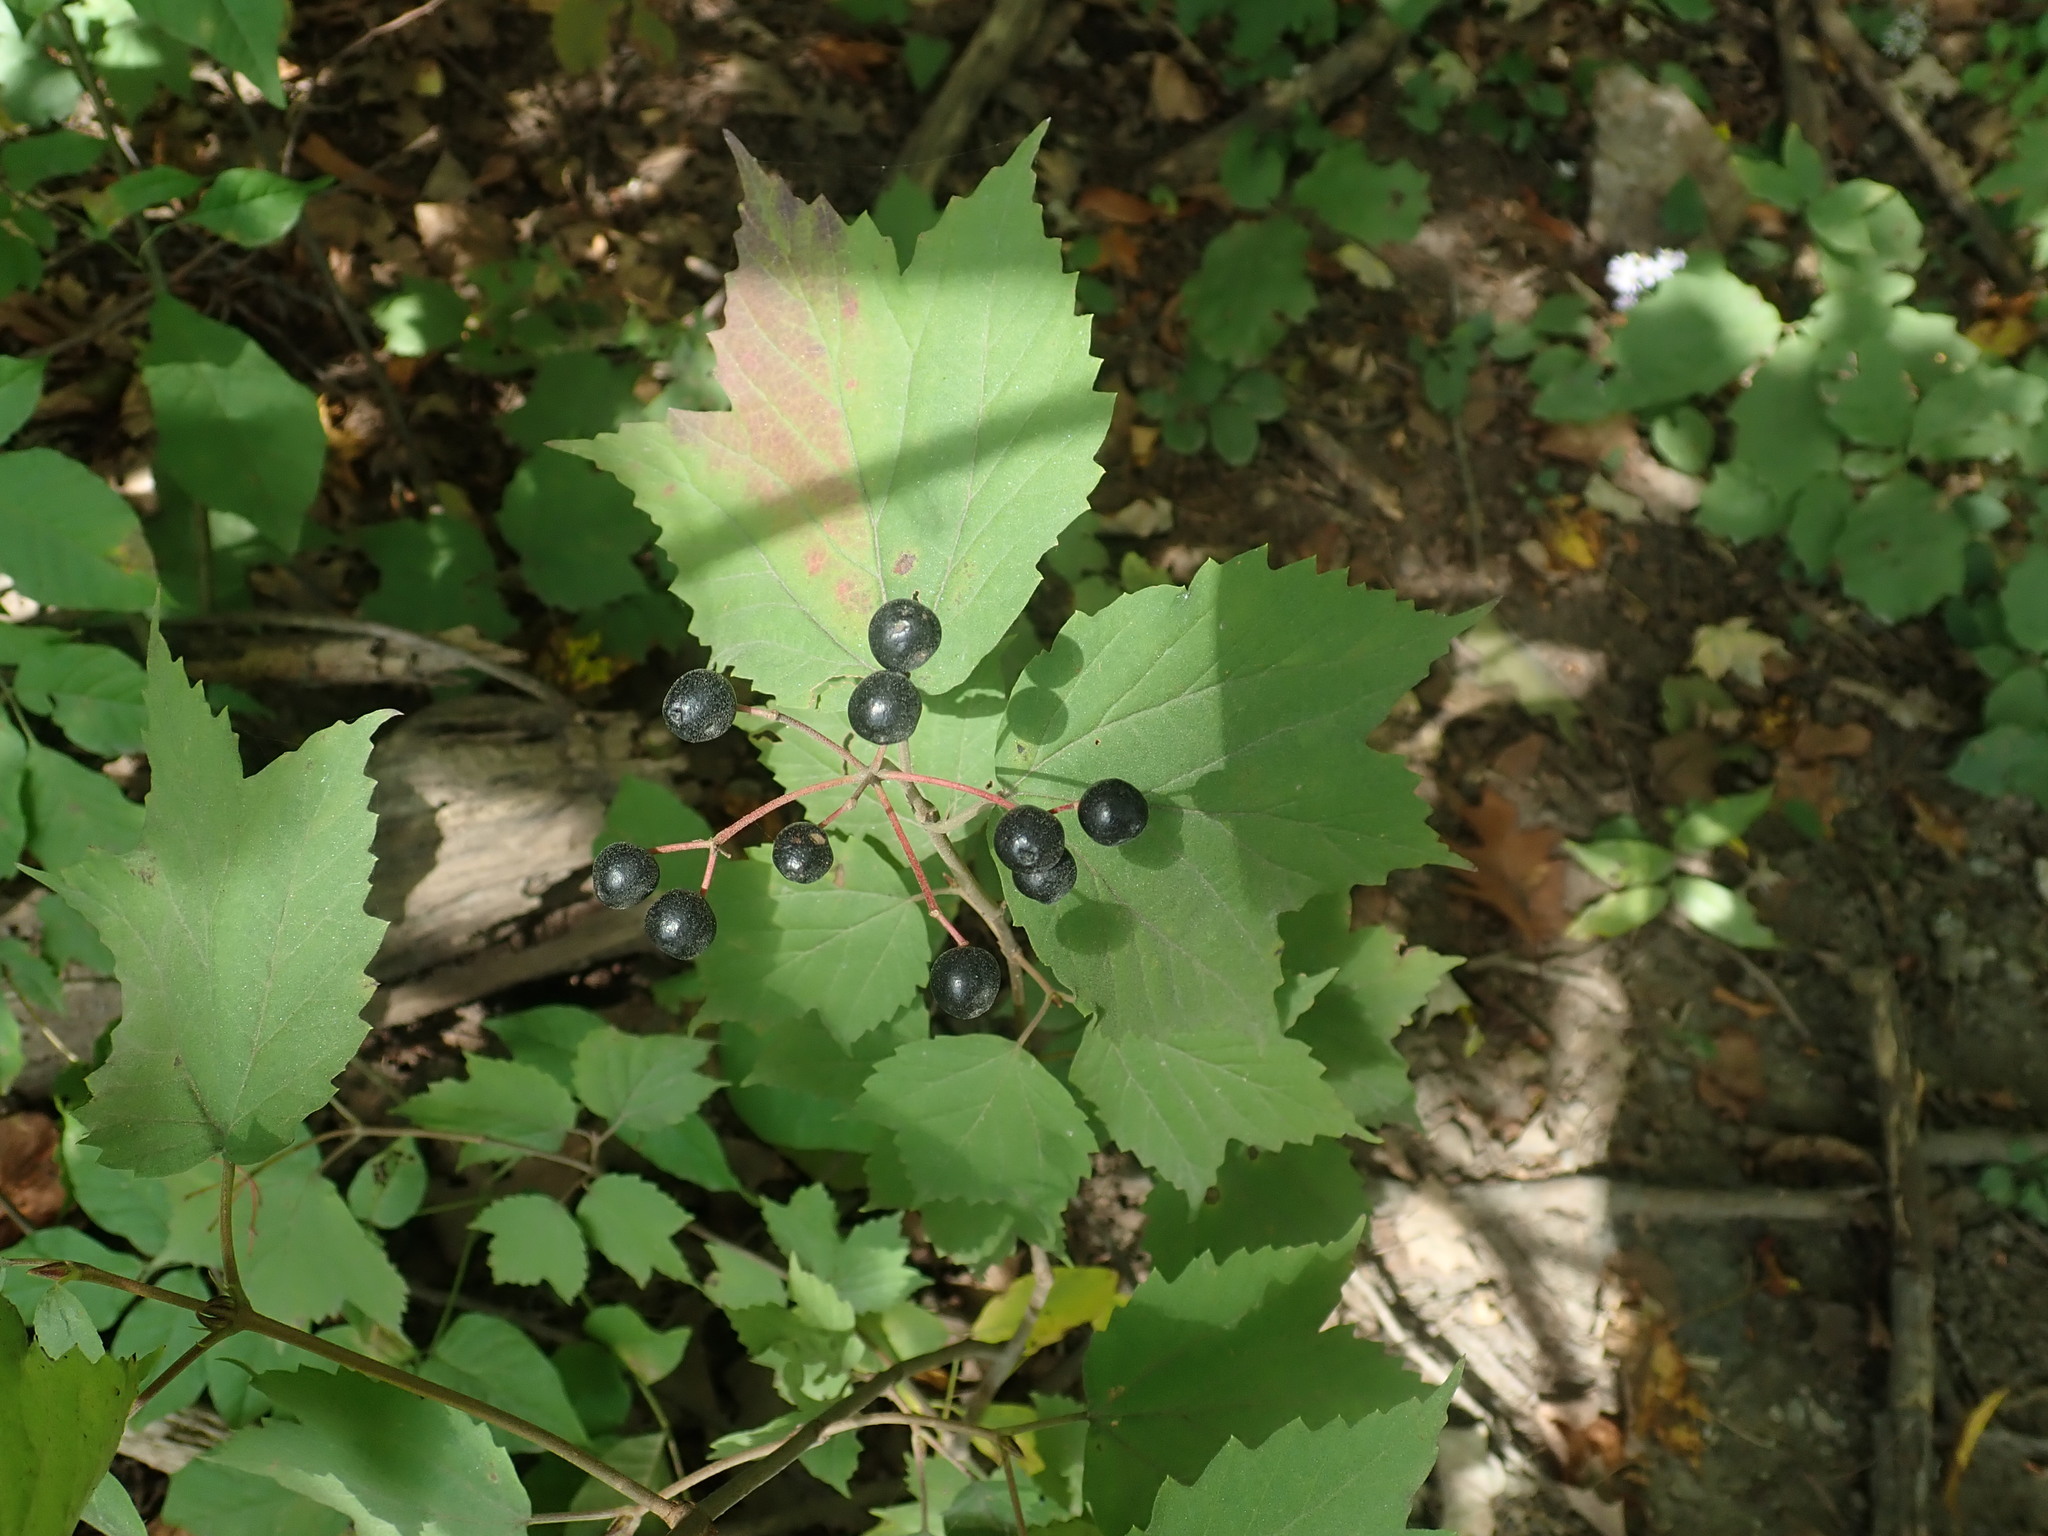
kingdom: Plantae
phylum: Tracheophyta
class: Magnoliopsida
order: Dipsacales
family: Viburnaceae
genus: Viburnum
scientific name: Viburnum acerifolium
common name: Dockmackie
